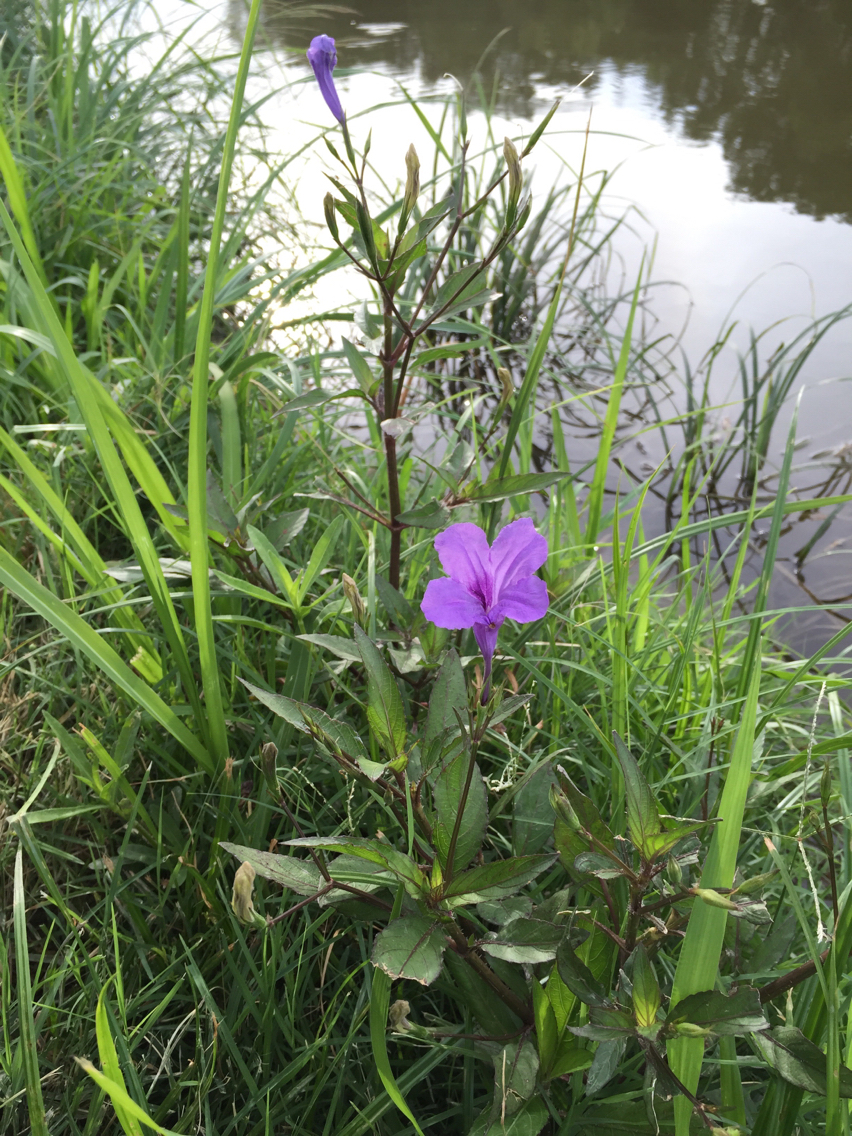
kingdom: Plantae
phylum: Tracheophyta
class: Magnoliopsida
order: Lamiales
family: Acanthaceae
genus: Ruellia
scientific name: Ruellia simplex
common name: Softseed wild petunia
